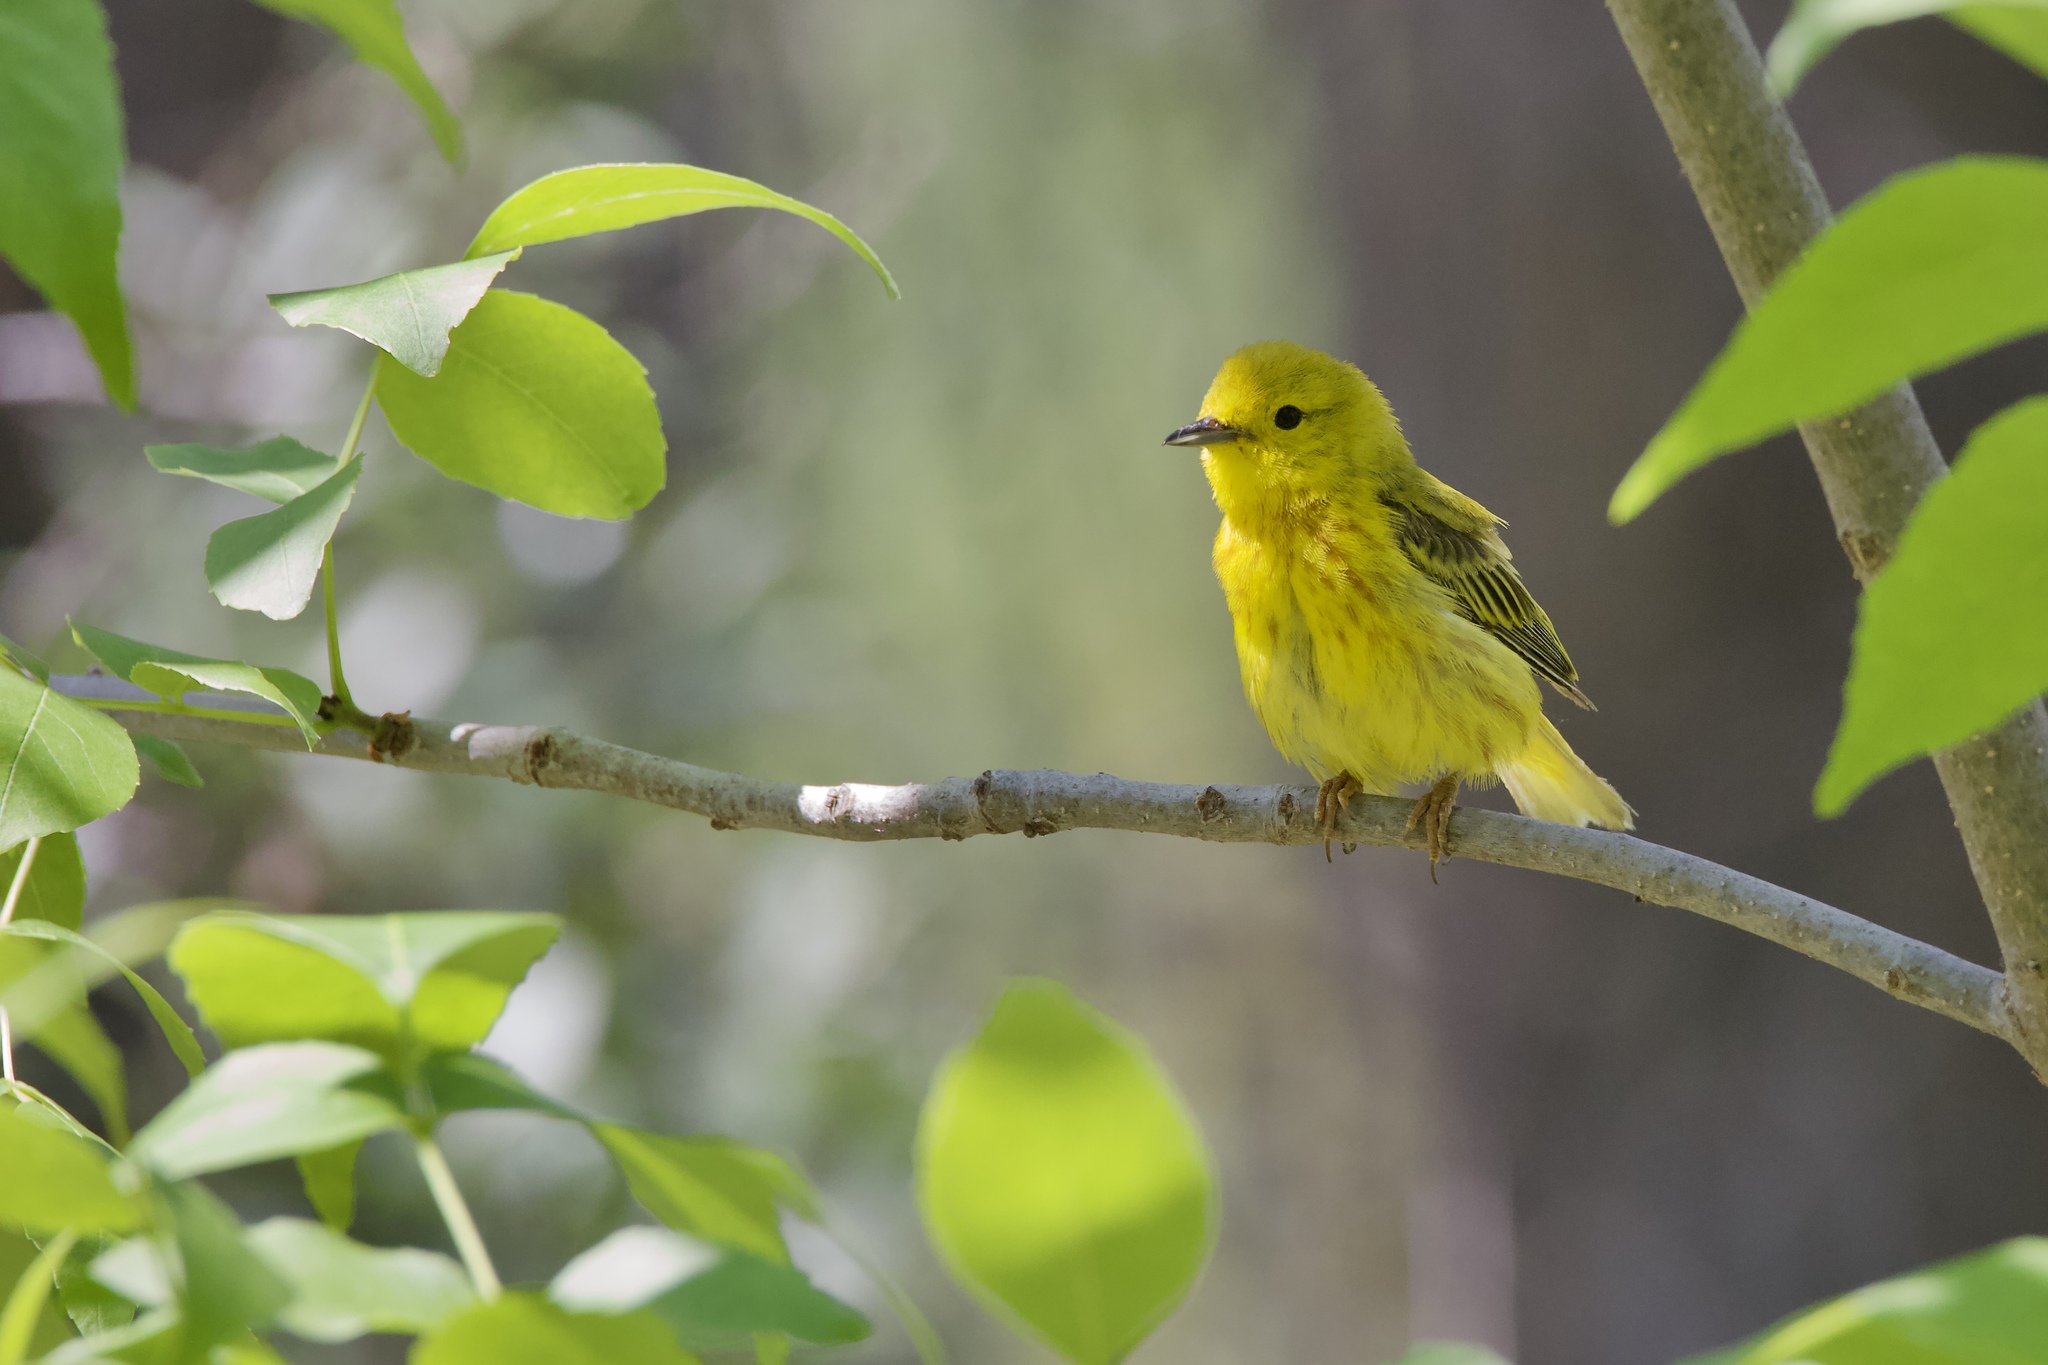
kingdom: Animalia
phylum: Chordata
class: Aves
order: Passeriformes
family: Parulidae
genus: Setophaga
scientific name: Setophaga petechia
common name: Yellow warbler
